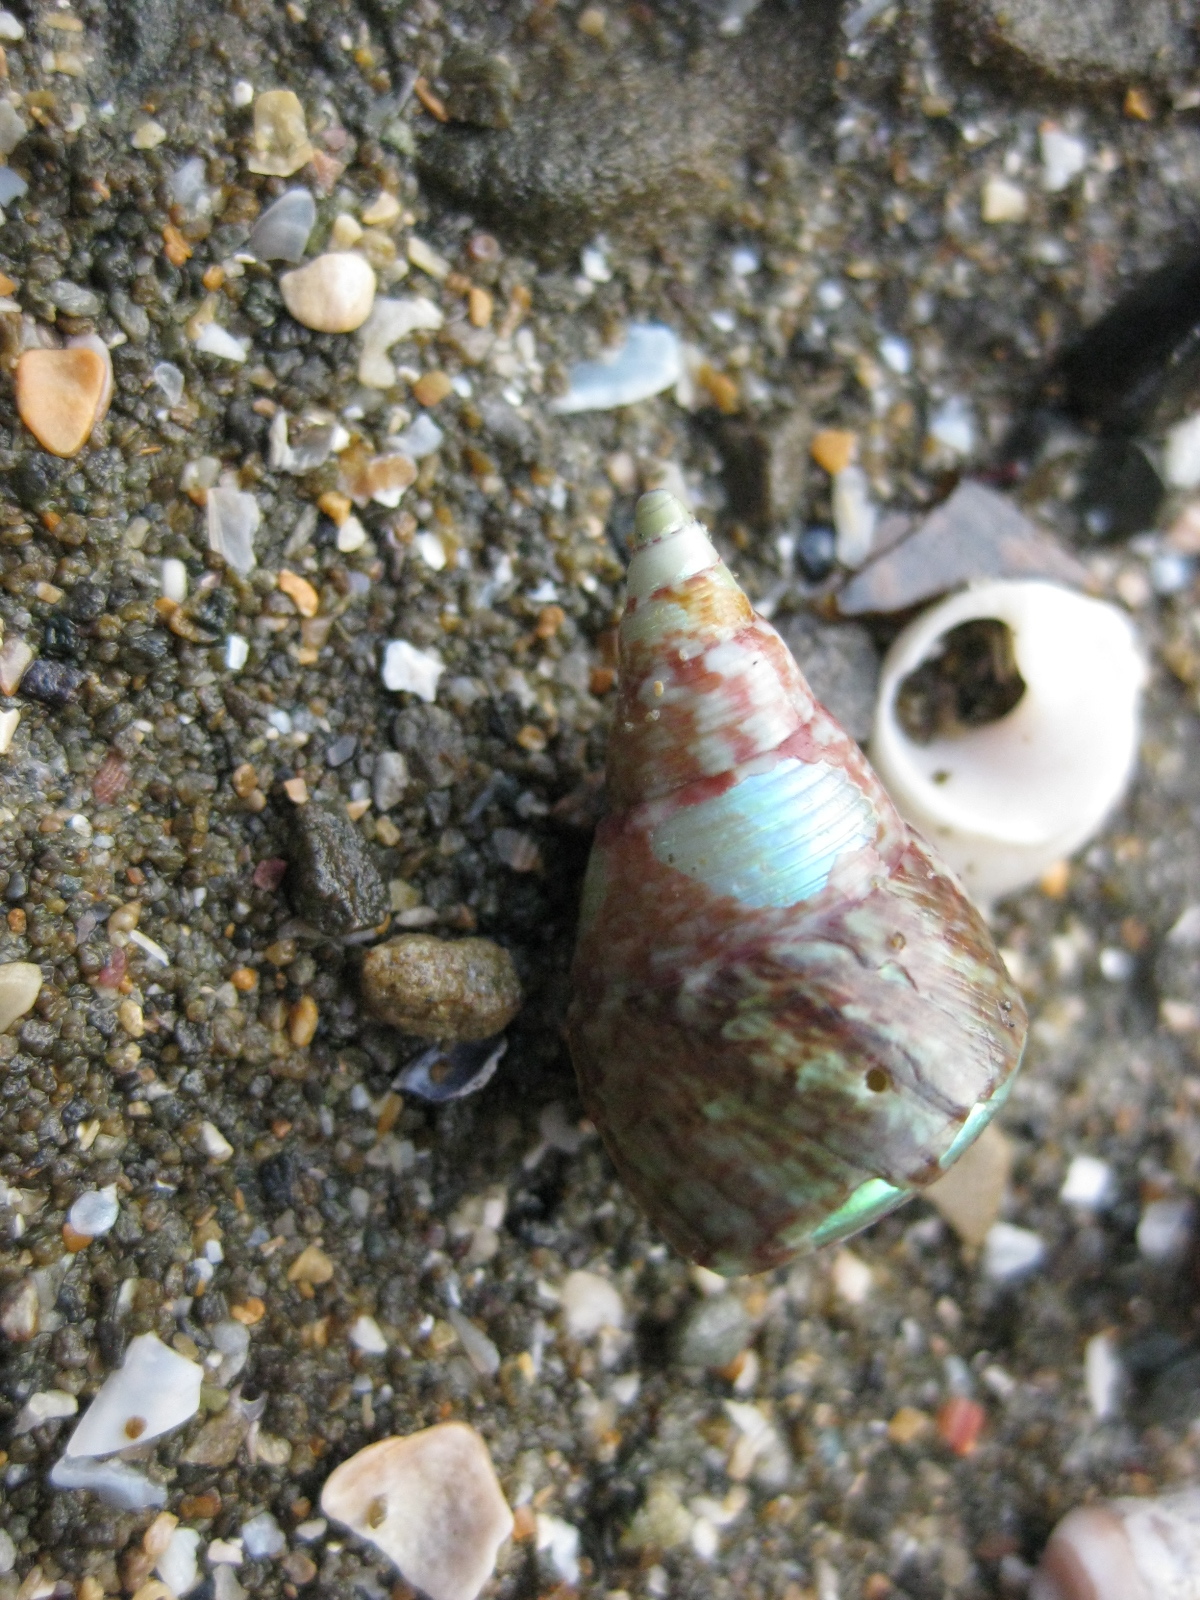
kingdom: Animalia
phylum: Mollusca
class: Gastropoda
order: Trochida
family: Trochidae
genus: Cantharidus
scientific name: Cantharidus opalus
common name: Opal jewel topsnail
